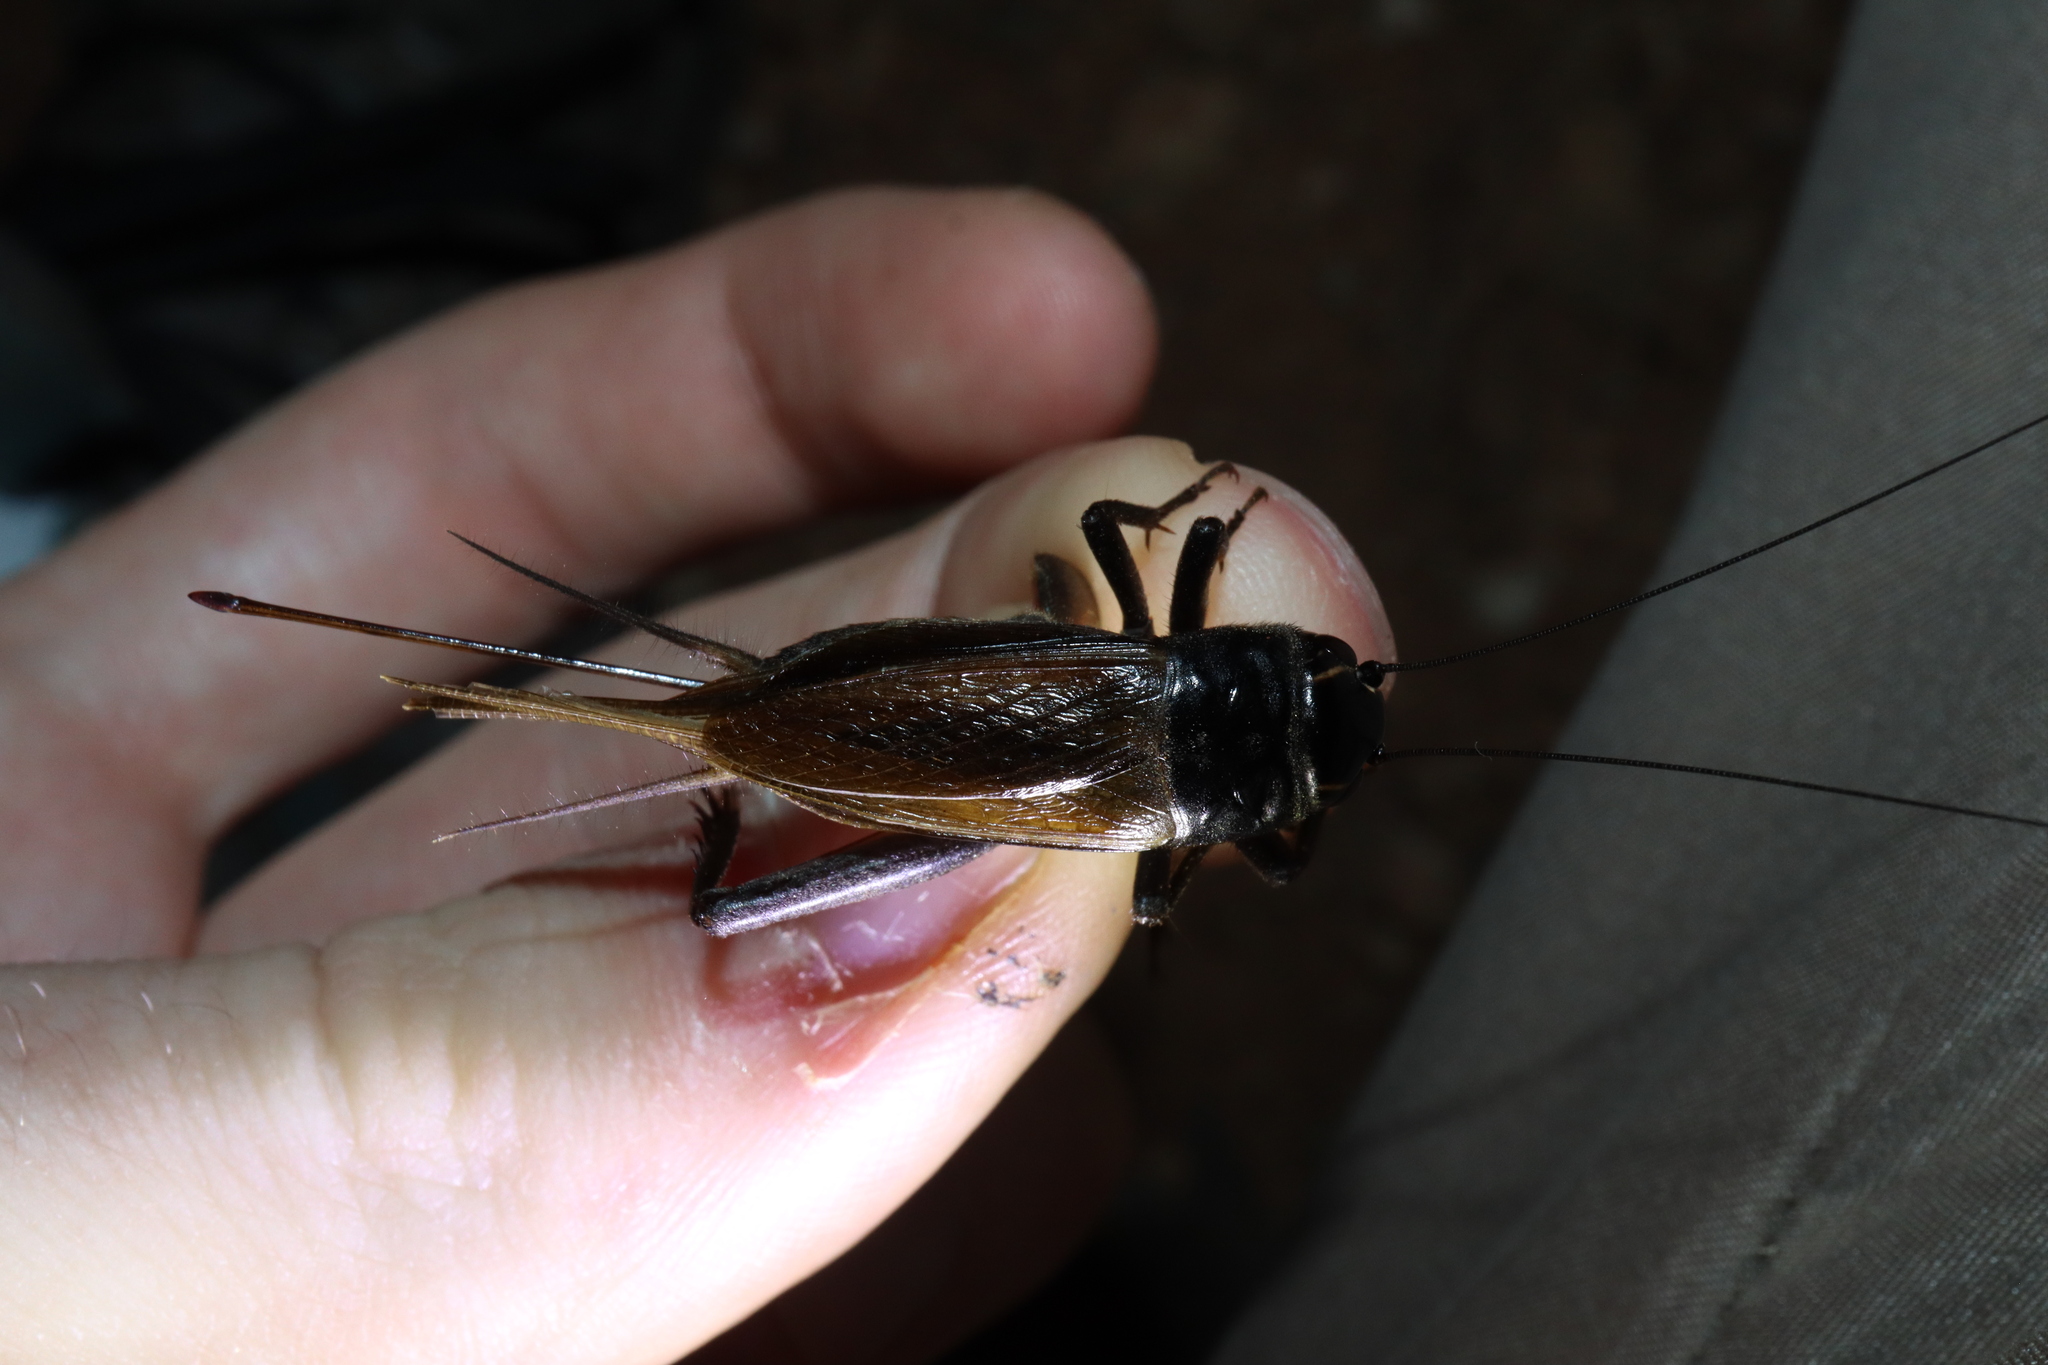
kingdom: Animalia
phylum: Arthropoda
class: Insecta
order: Orthoptera
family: Gryllidae
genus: Teleogryllus
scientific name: Teleogryllus commodus
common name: Black field cricket
